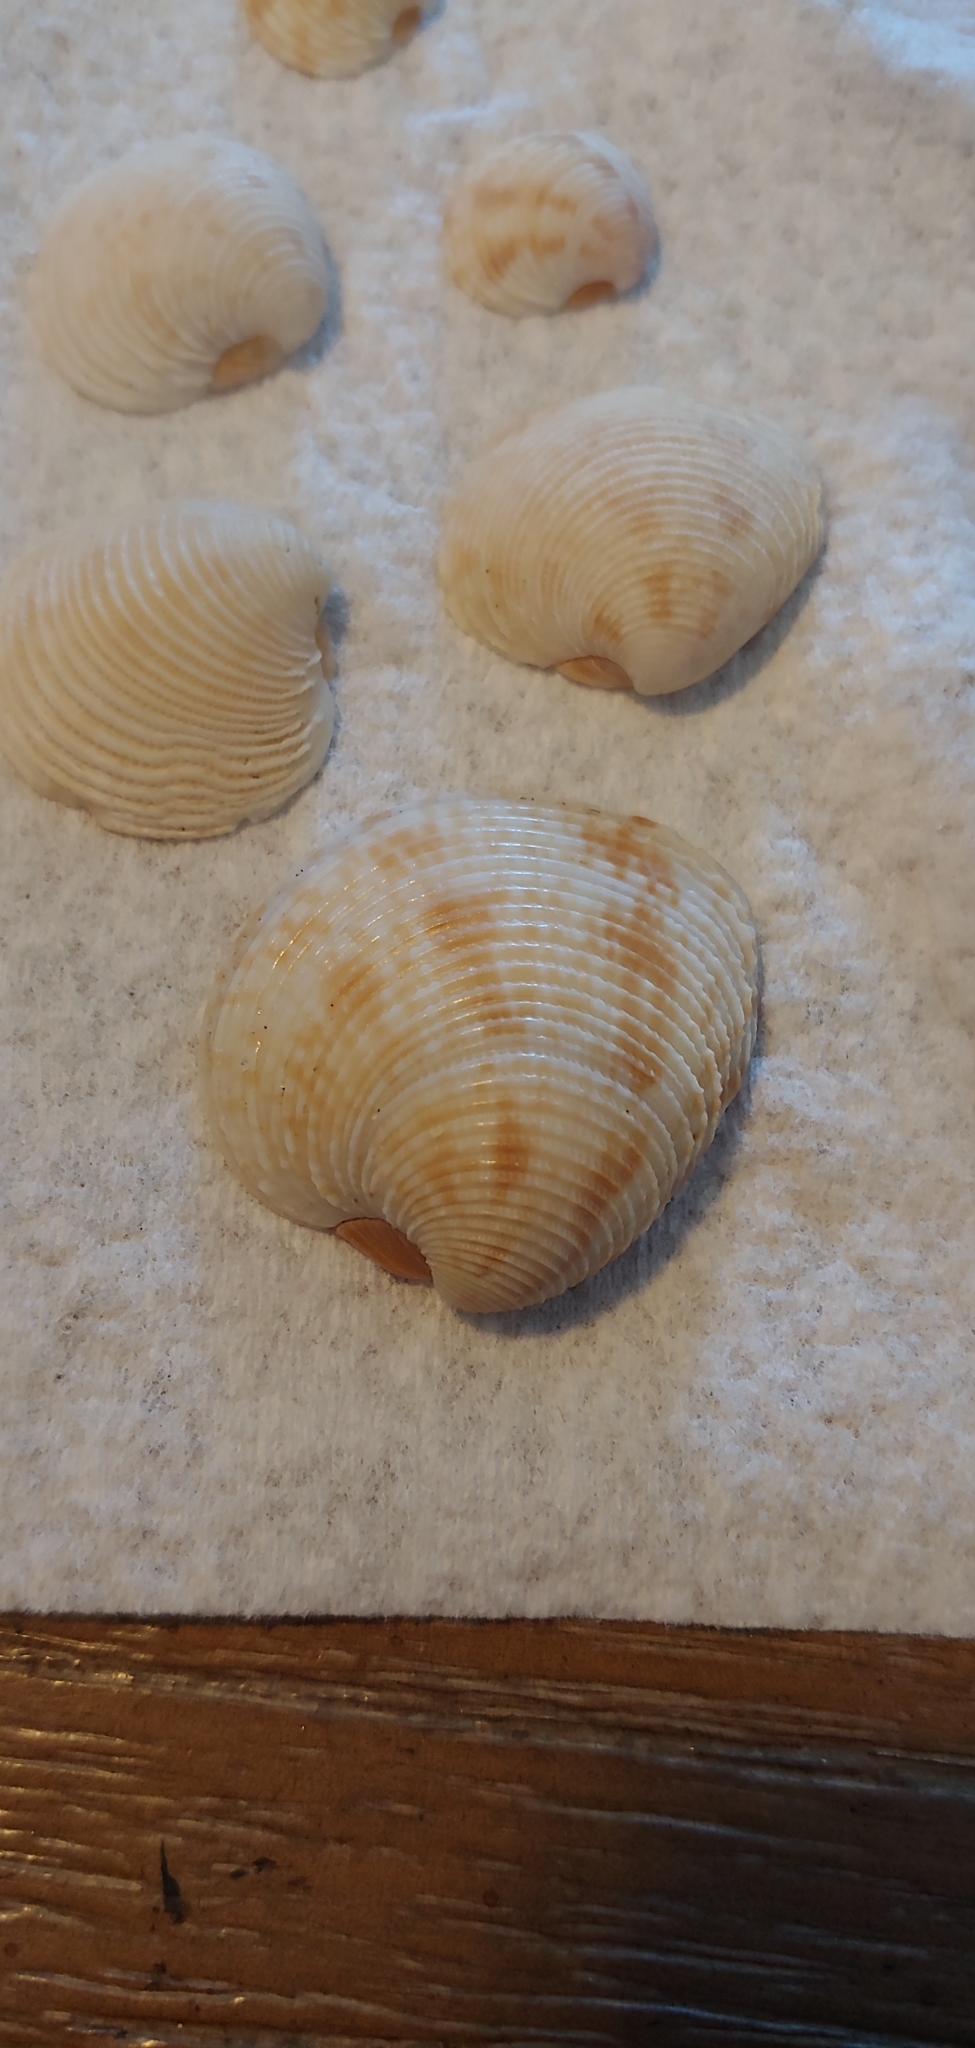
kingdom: Animalia
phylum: Mollusca
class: Bivalvia
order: Venerida
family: Veneridae
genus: Chionopsis
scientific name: Chionopsis intapurpurea
